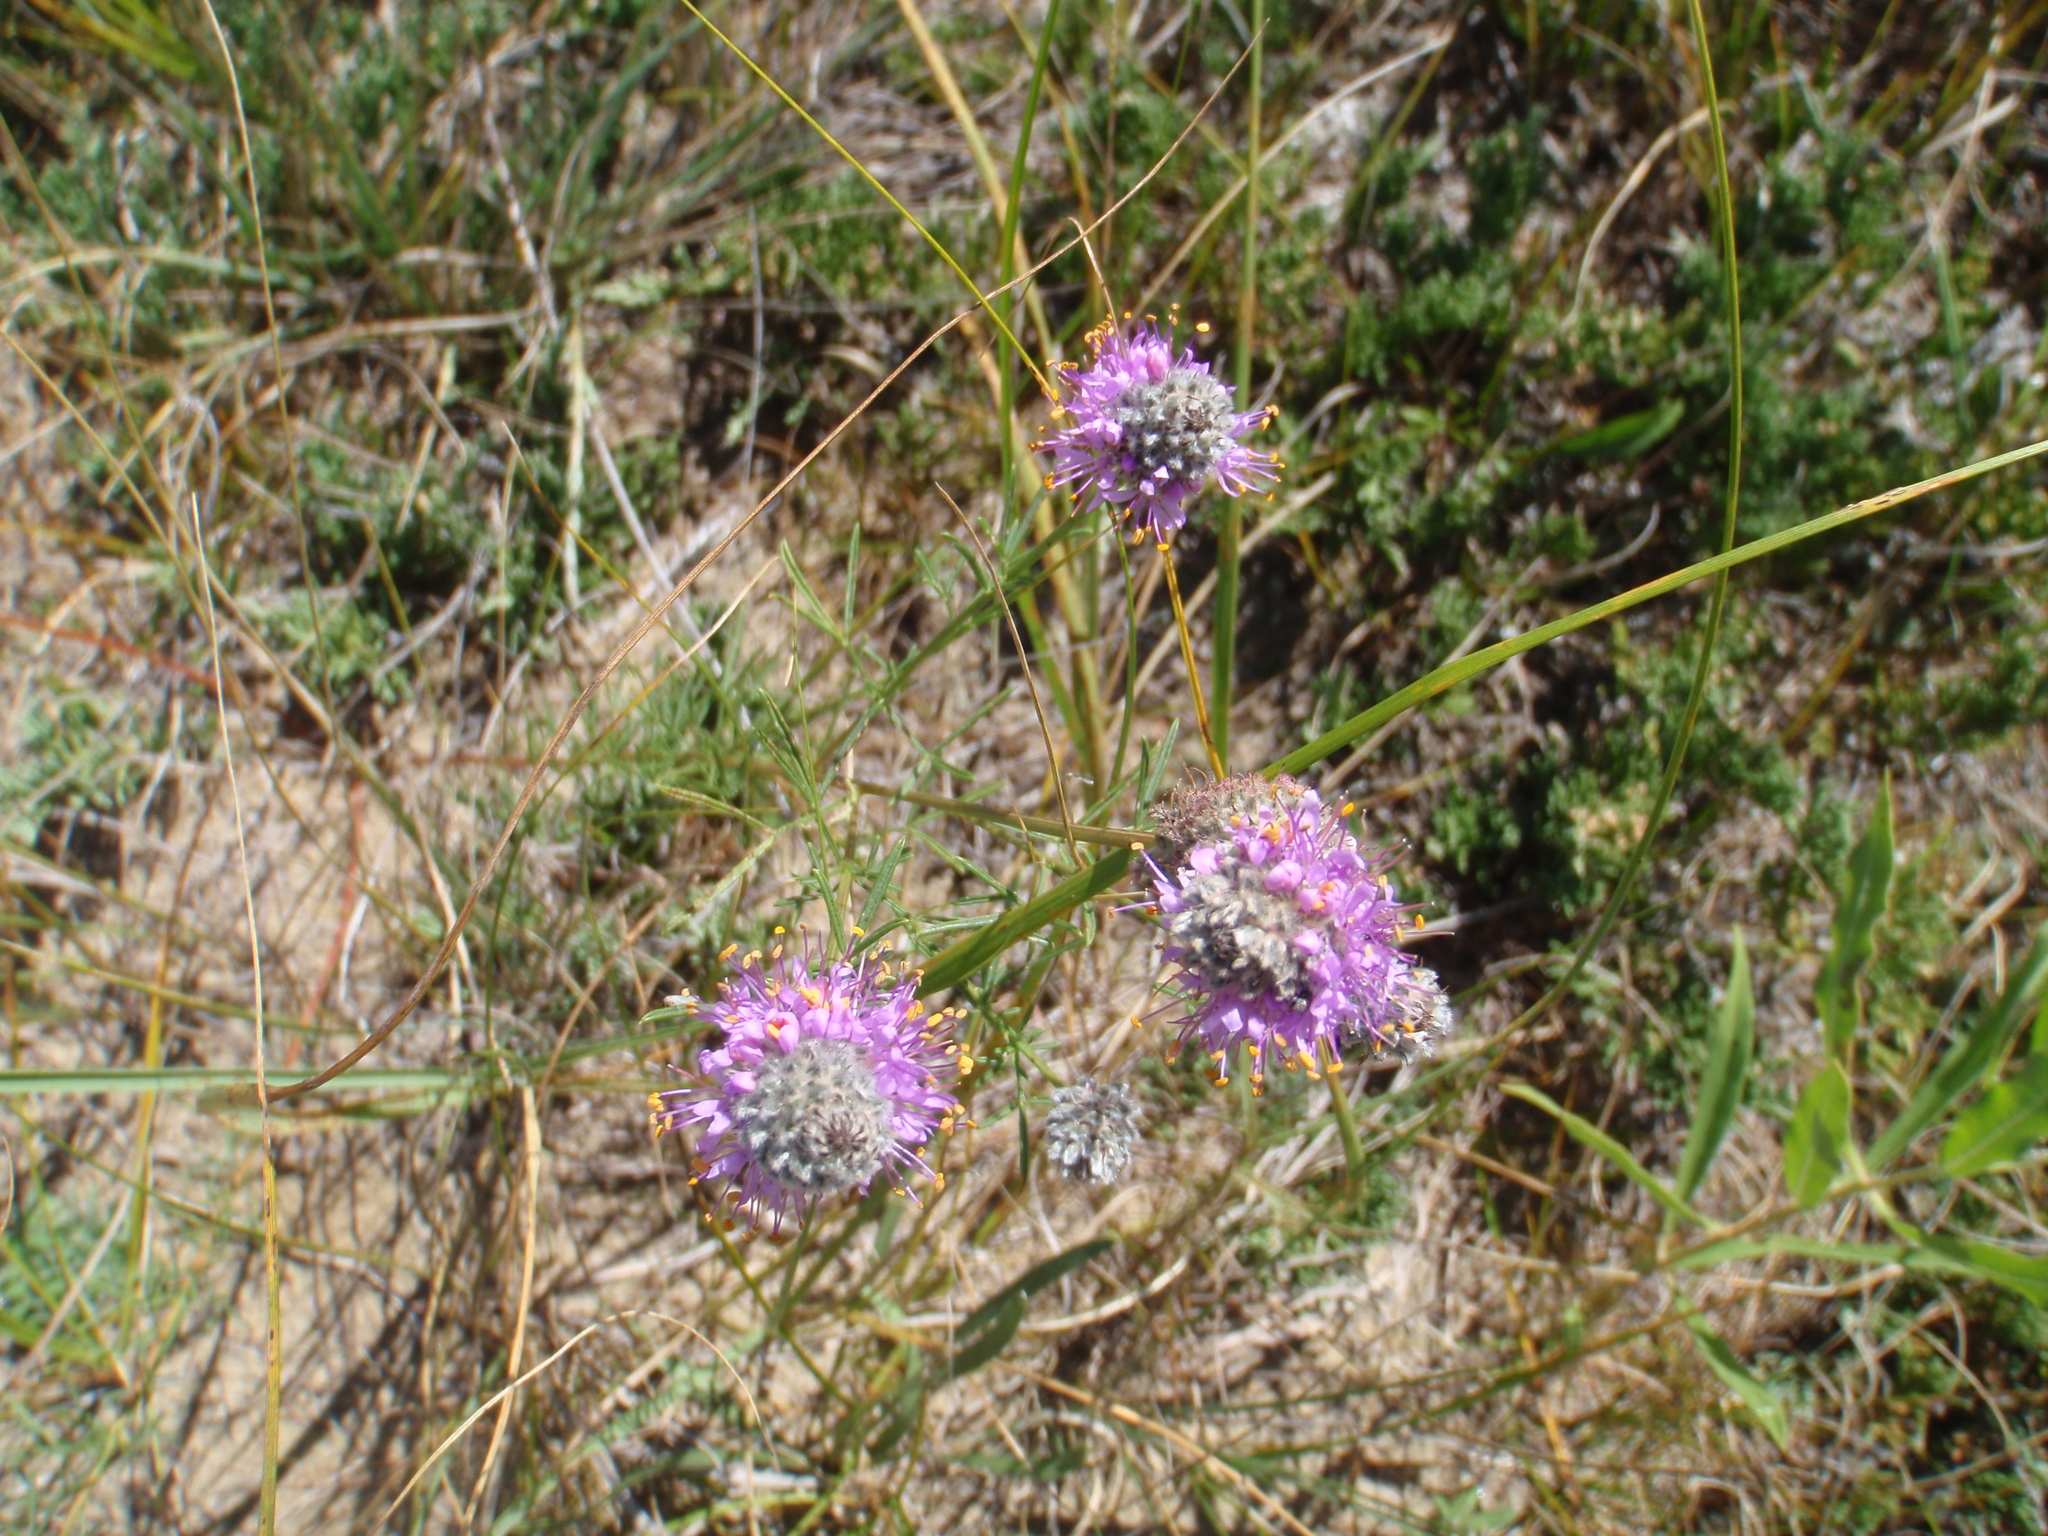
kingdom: Plantae
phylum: Tracheophyta
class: Magnoliopsida
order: Fabales
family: Fabaceae
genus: Dalea
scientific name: Dalea purpurea
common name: Purple prairie-clover
